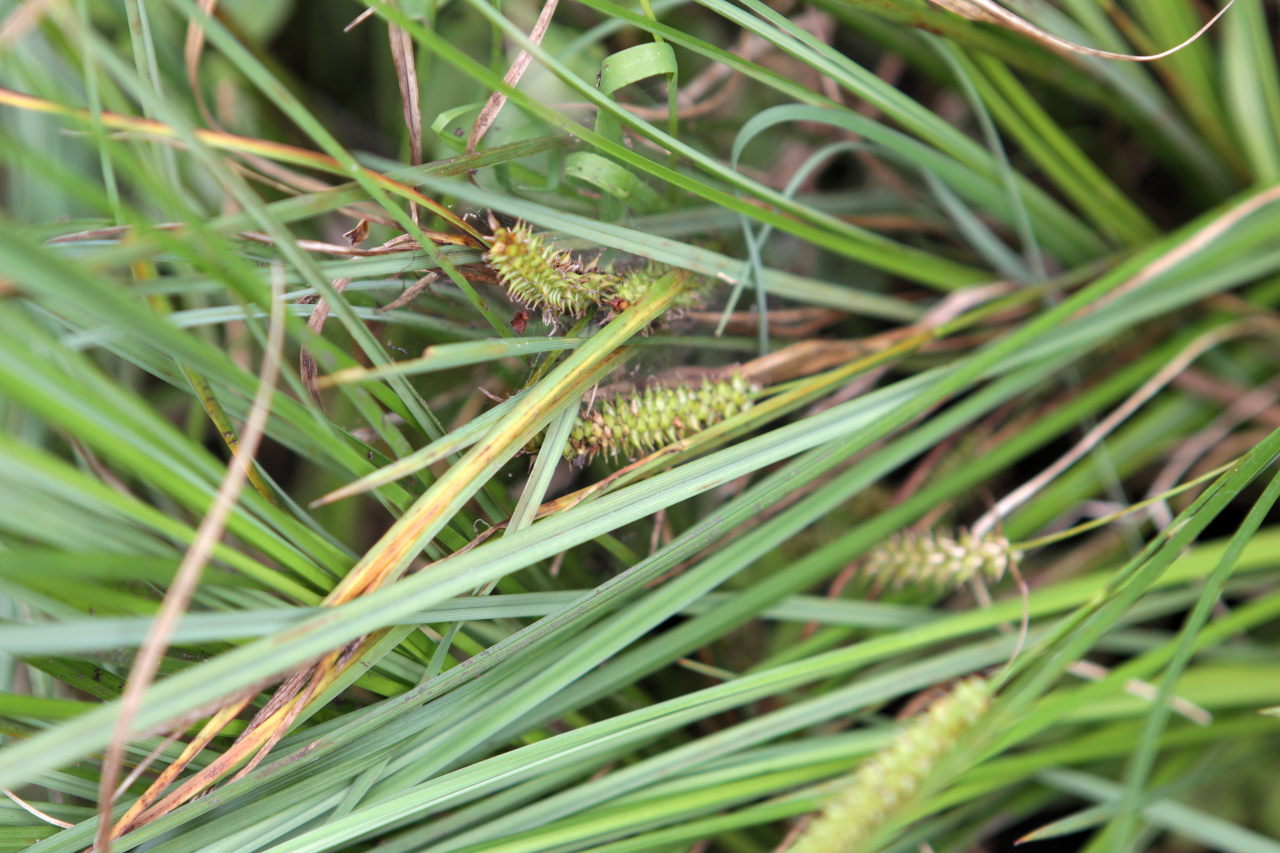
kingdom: Plantae
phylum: Tracheophyta
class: Liliopsida
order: Poales
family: Cyperaceae
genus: Carex
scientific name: Carex rostrata
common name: Bottle sedge
